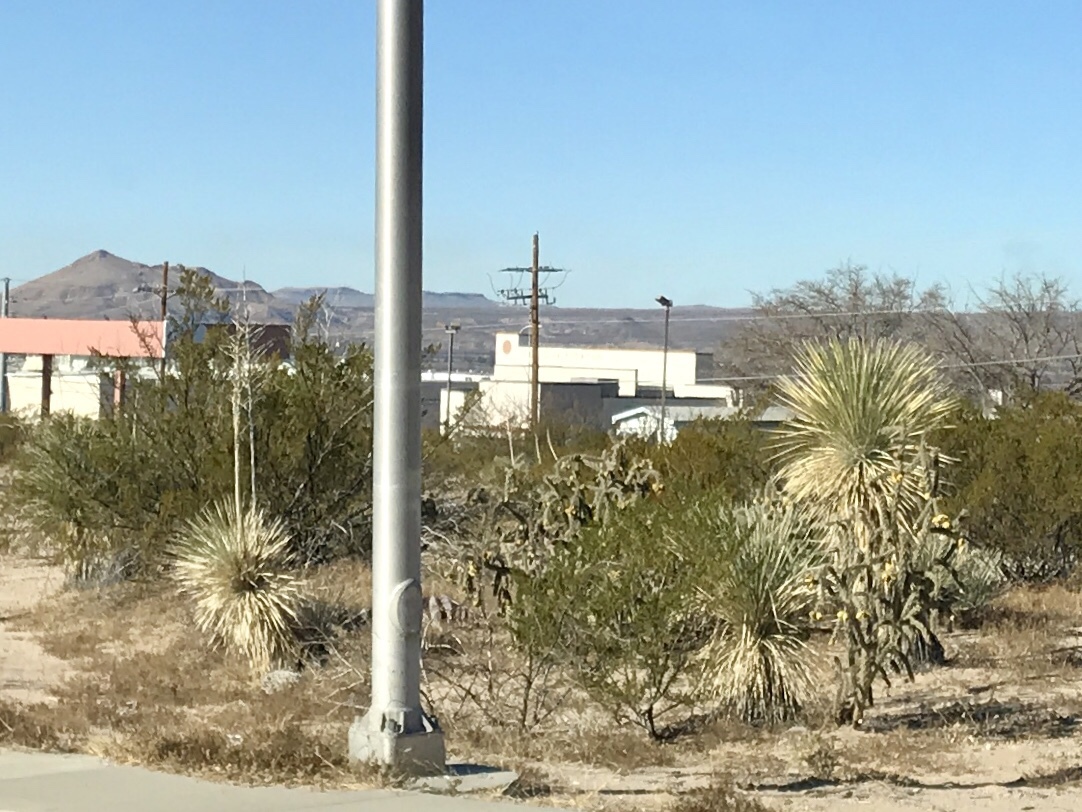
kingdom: Plantae
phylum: Tracheophyta
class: Liliopsida
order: Asparagales
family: Asparagaceae
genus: Yucca
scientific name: Yucca elata
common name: Palmella
